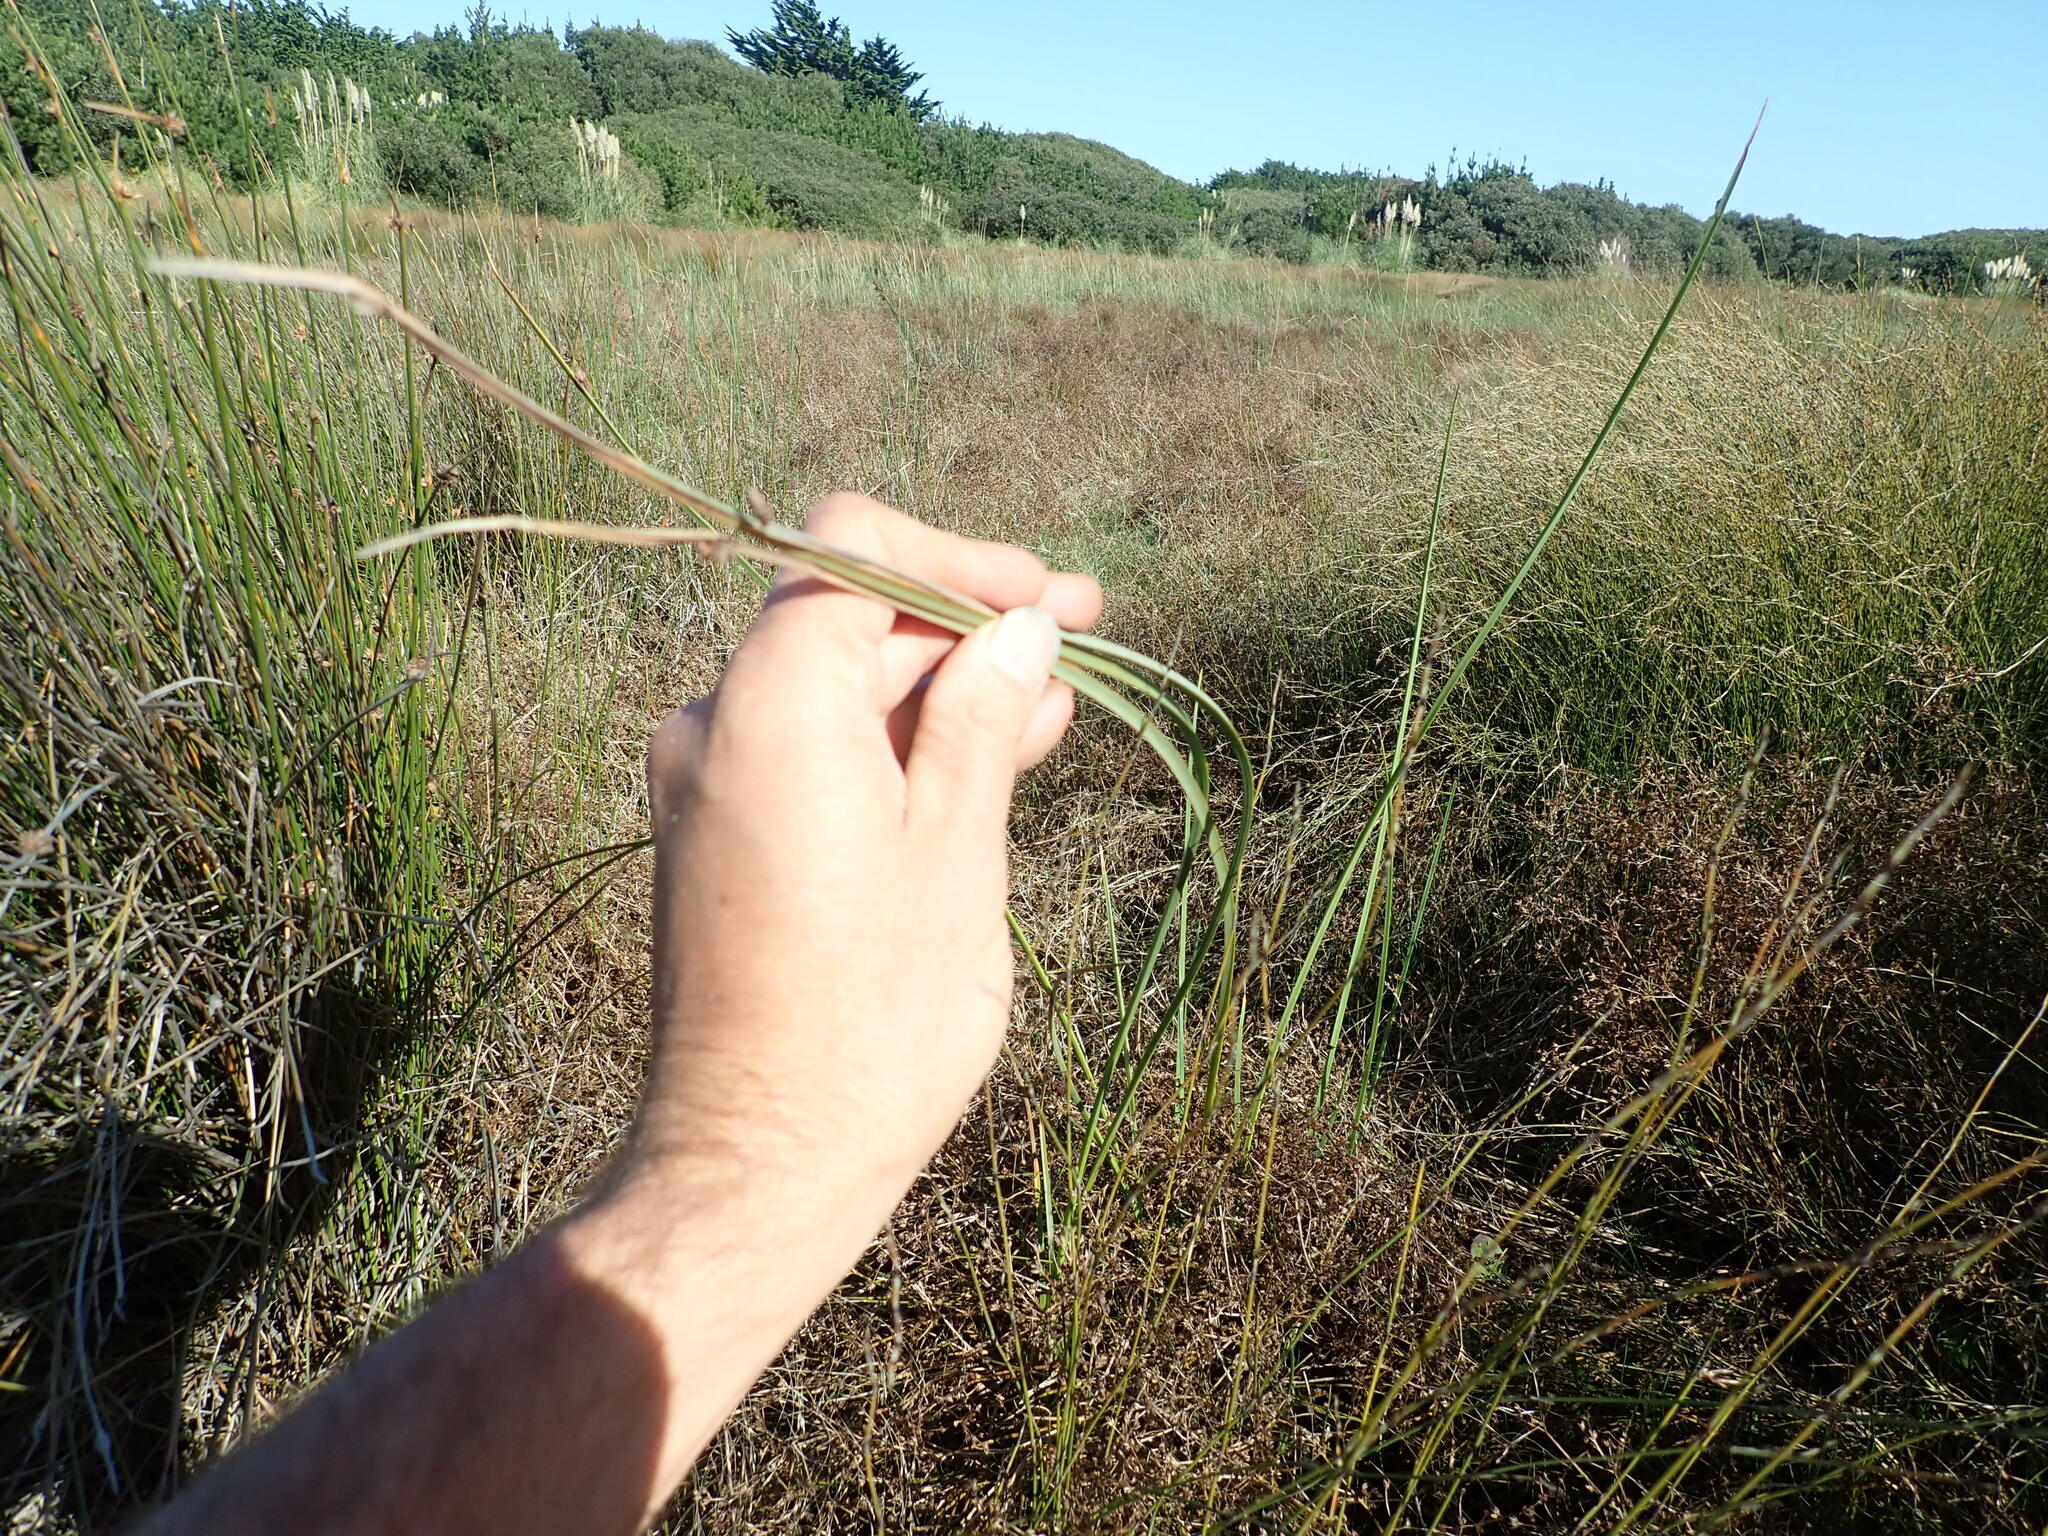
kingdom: Plantae
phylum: Tracheophyta
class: Liliopsida
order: Poales
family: Cyperaceae
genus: Schoenoplectus
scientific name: Schoenoplectus pungens
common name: Sharp club-rush
